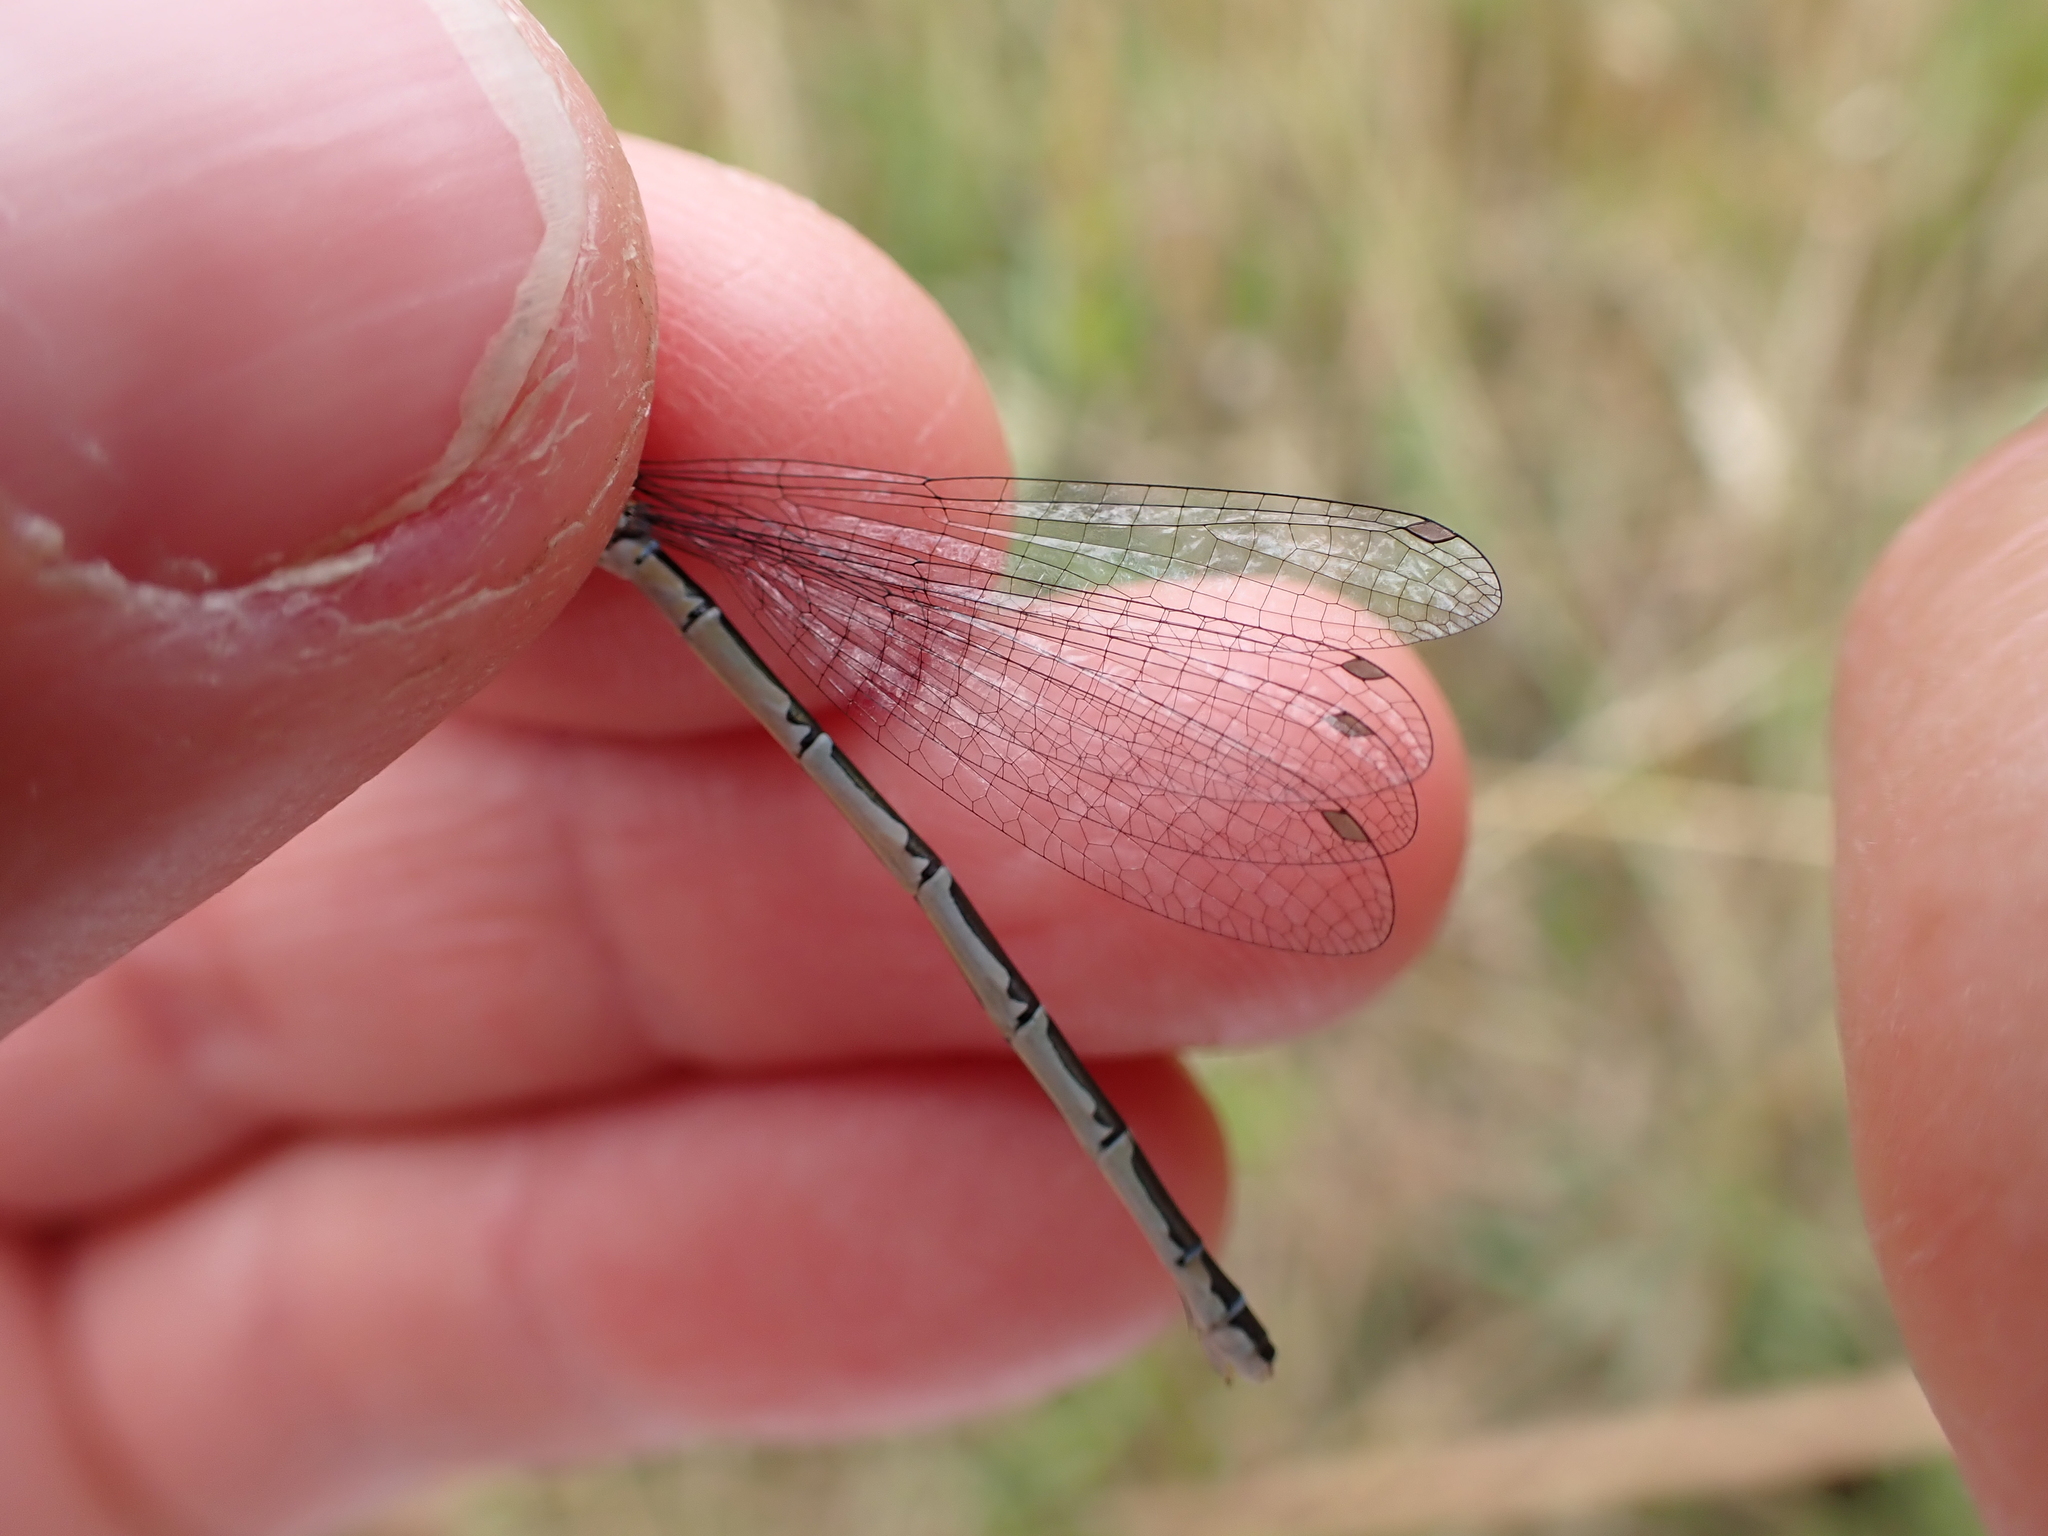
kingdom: Animalia
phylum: Arthropoda
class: Insecta
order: Odonata
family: Coenagrionidae
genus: Enallagma
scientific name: Enallagma cyathigerum
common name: Common blue damselfly
